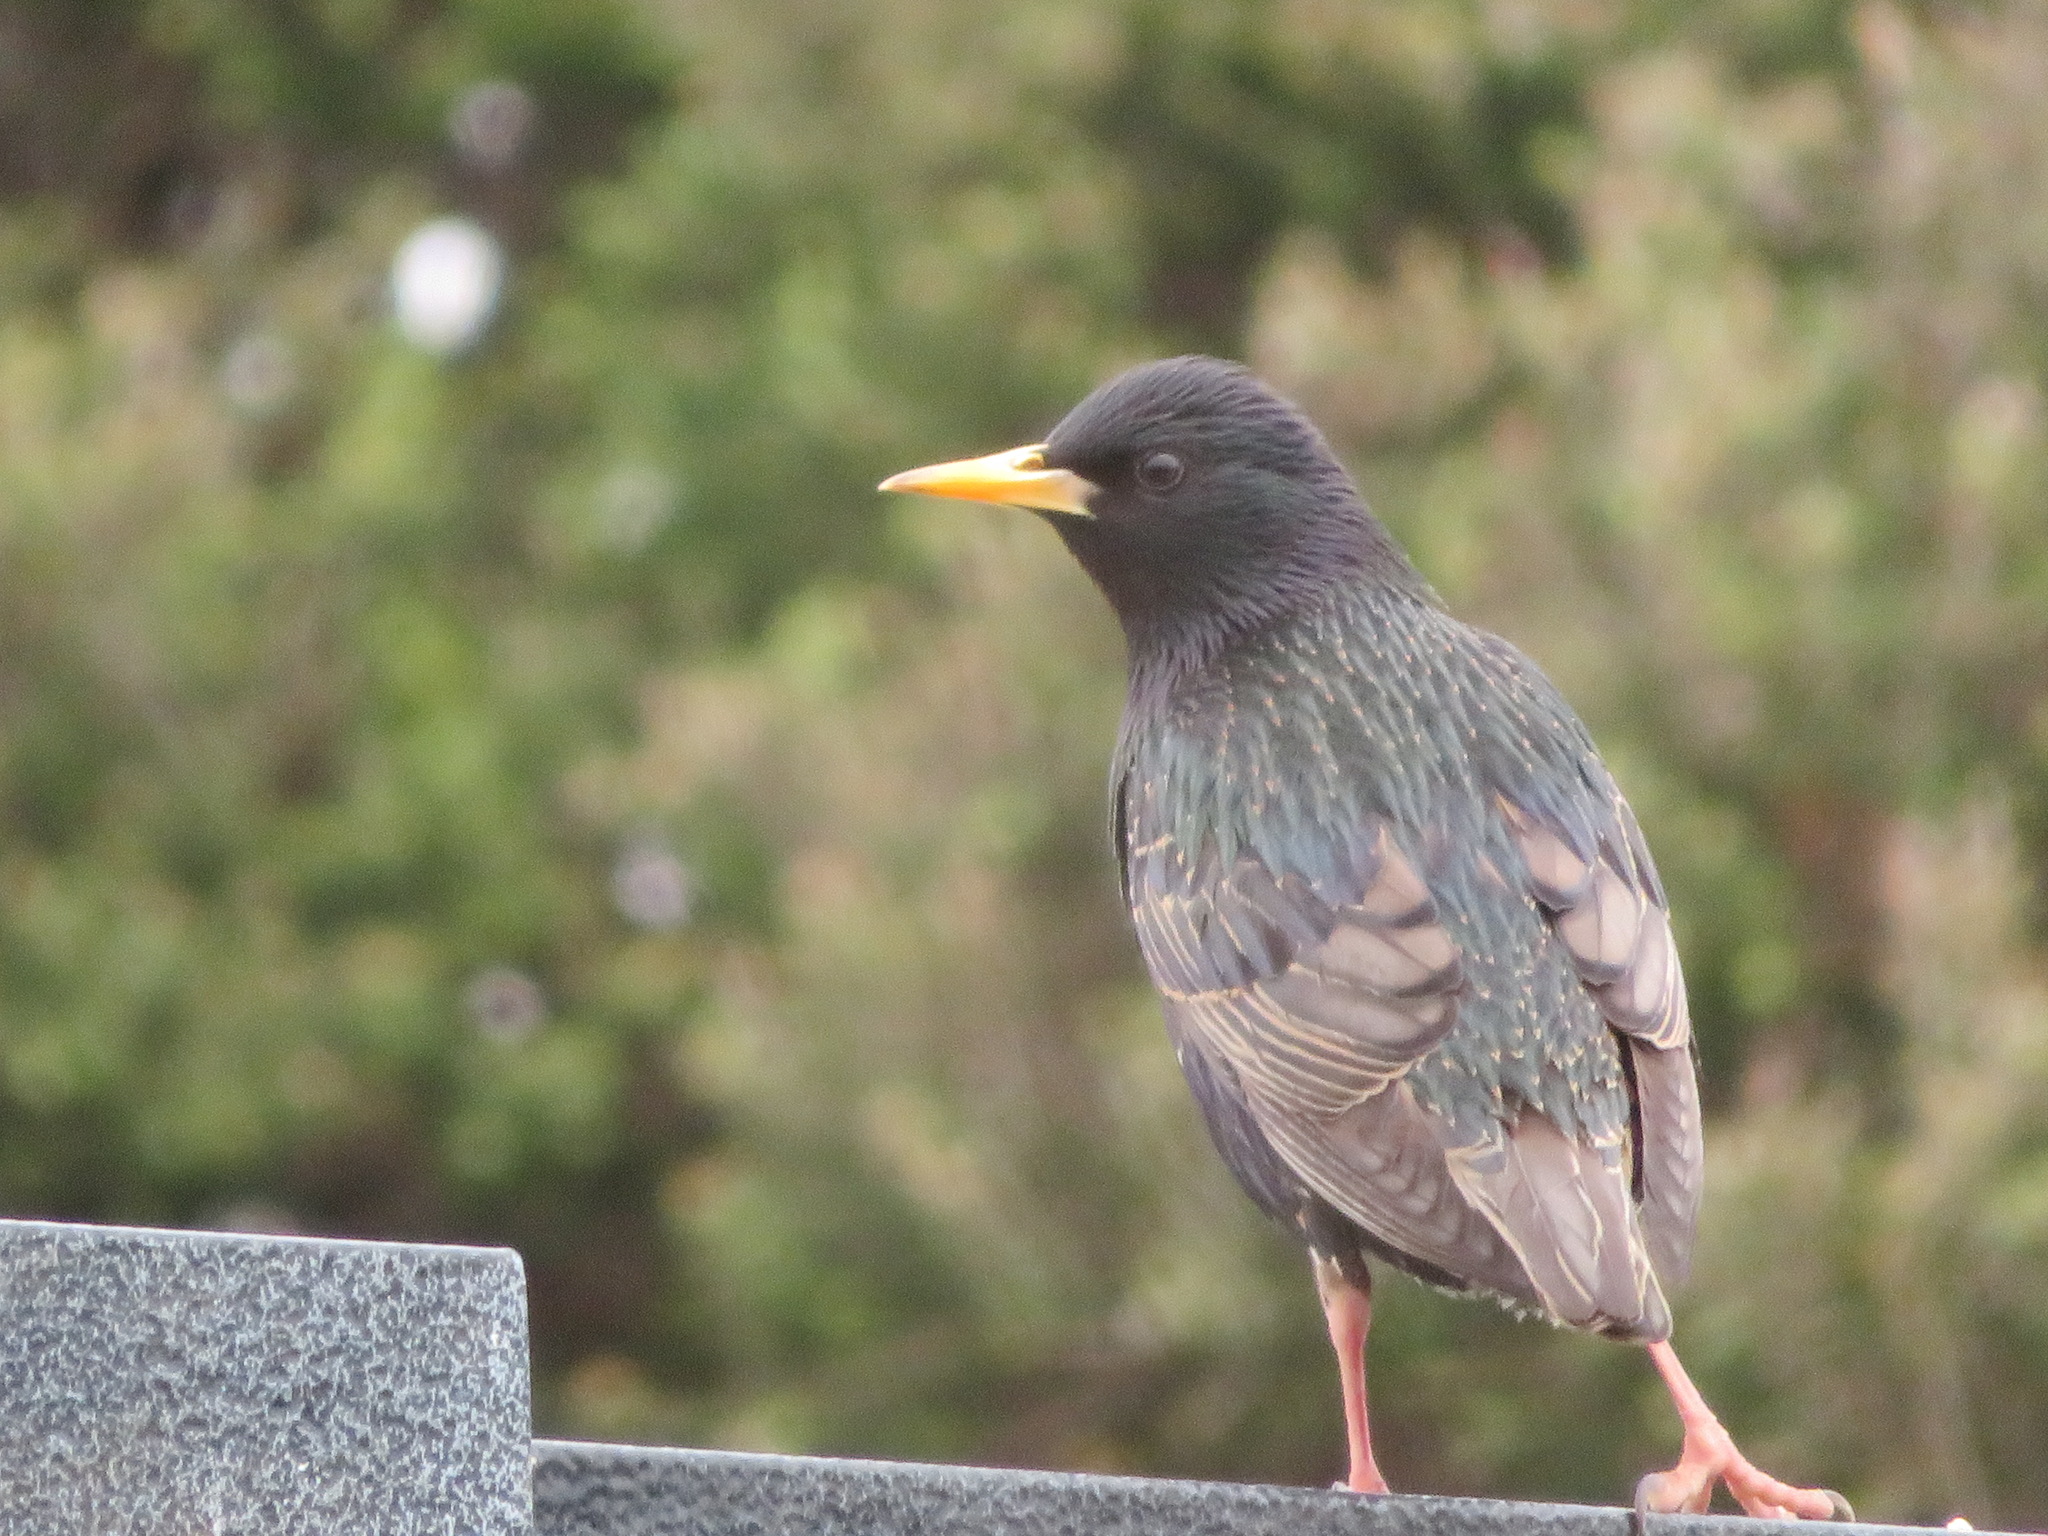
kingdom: Animalia
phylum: Chordata
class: Aves
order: Passeriformes
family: Sturnidae
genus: Sturnus
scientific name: Sturnus vulgaris
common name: Common starling
